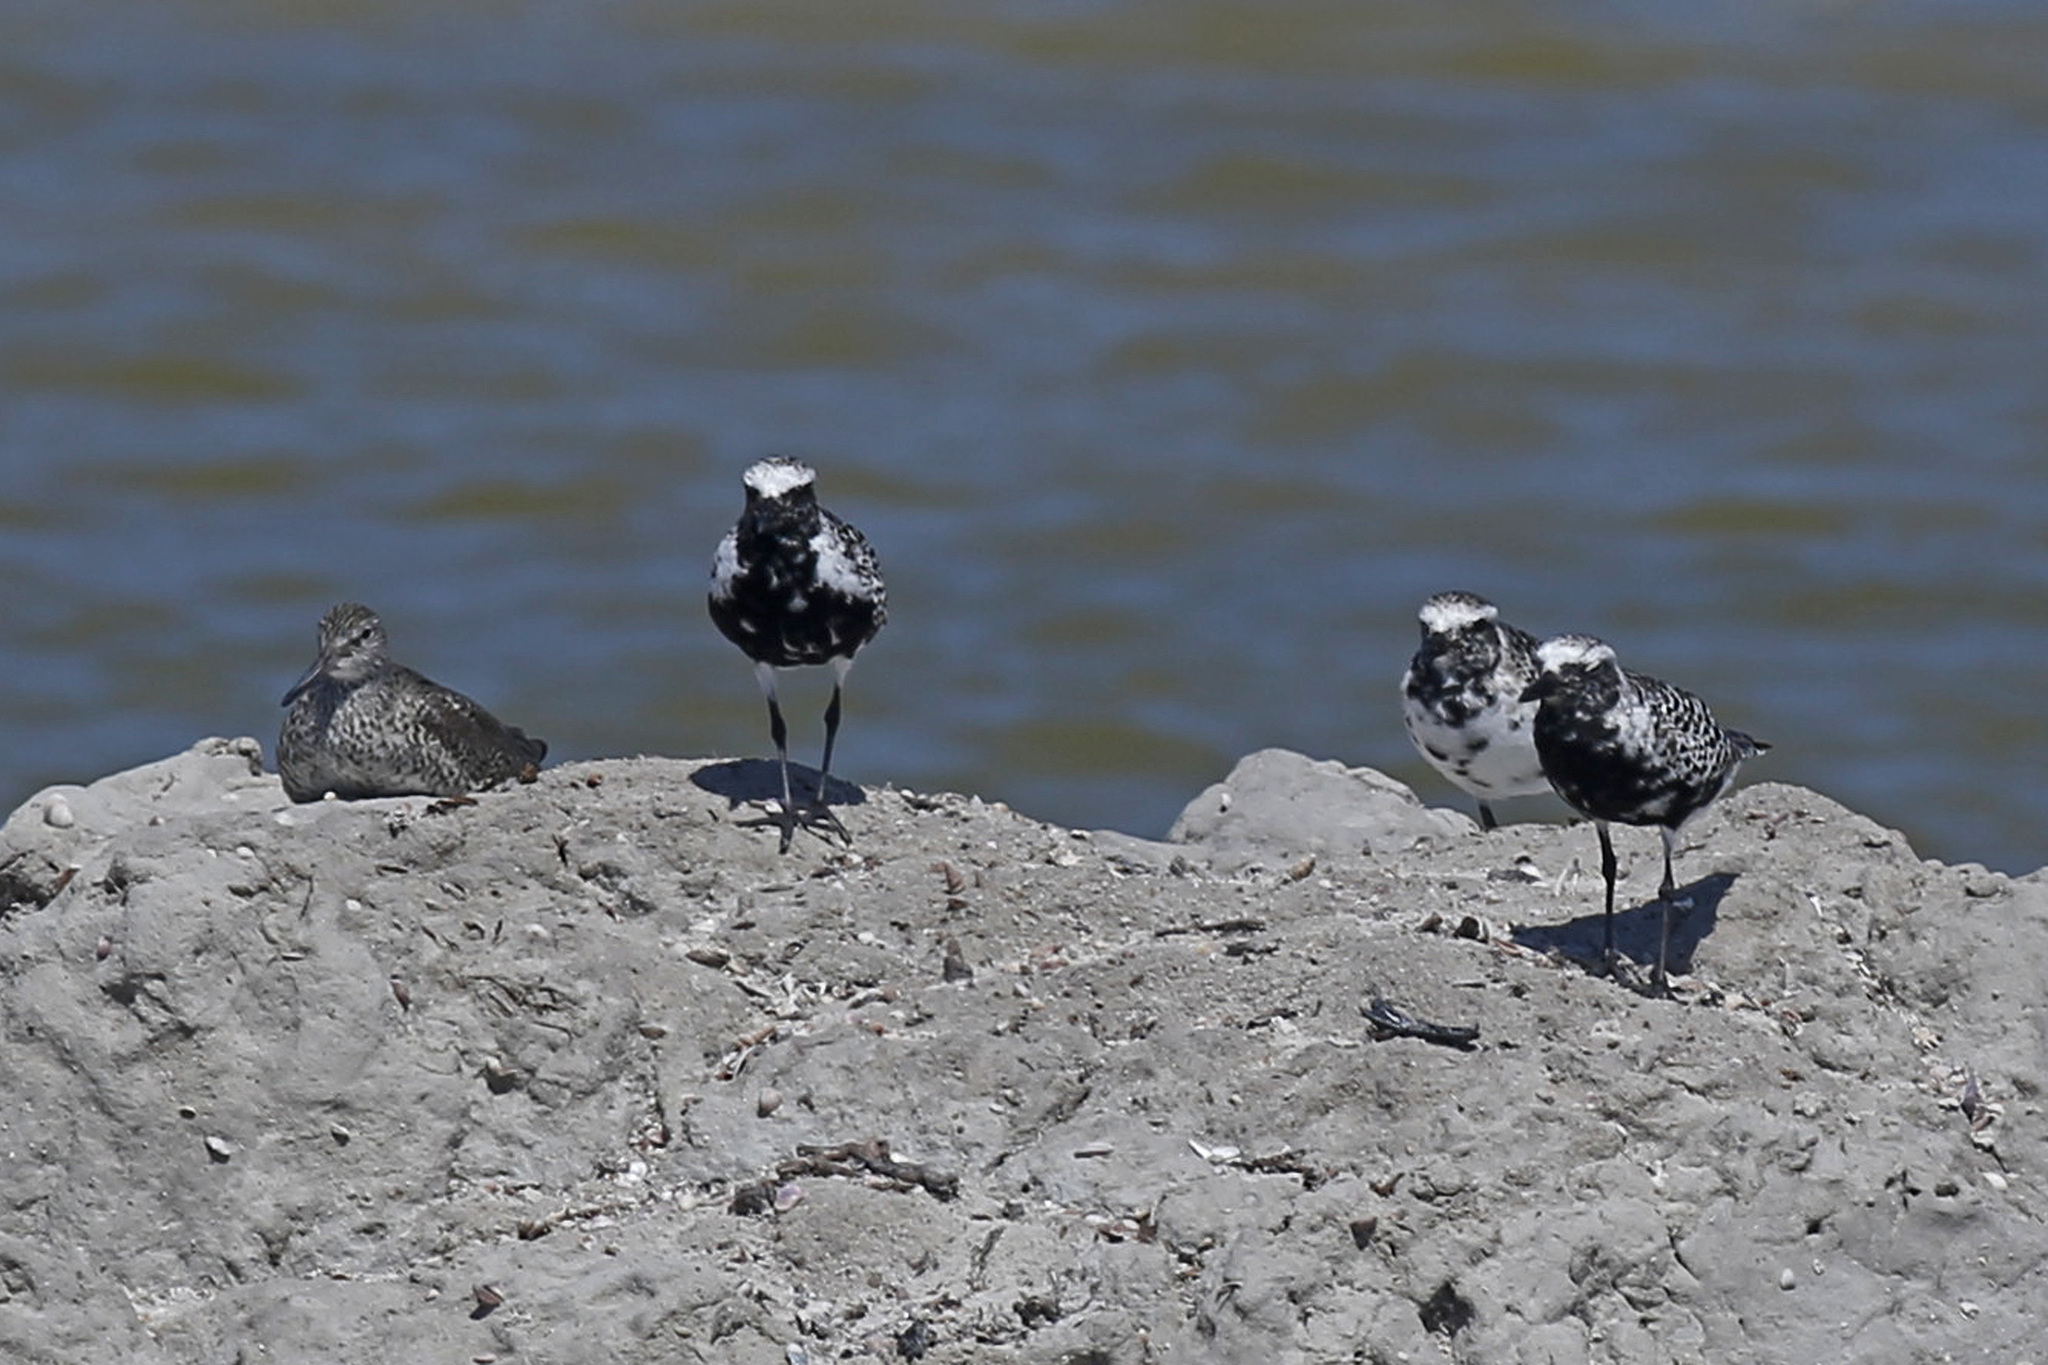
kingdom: Animalia
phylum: Chordata
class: Aves
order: Charadriiformes
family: Charadriidae
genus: Pluvialis
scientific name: Pluvialis squatarola
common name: Grey plover
